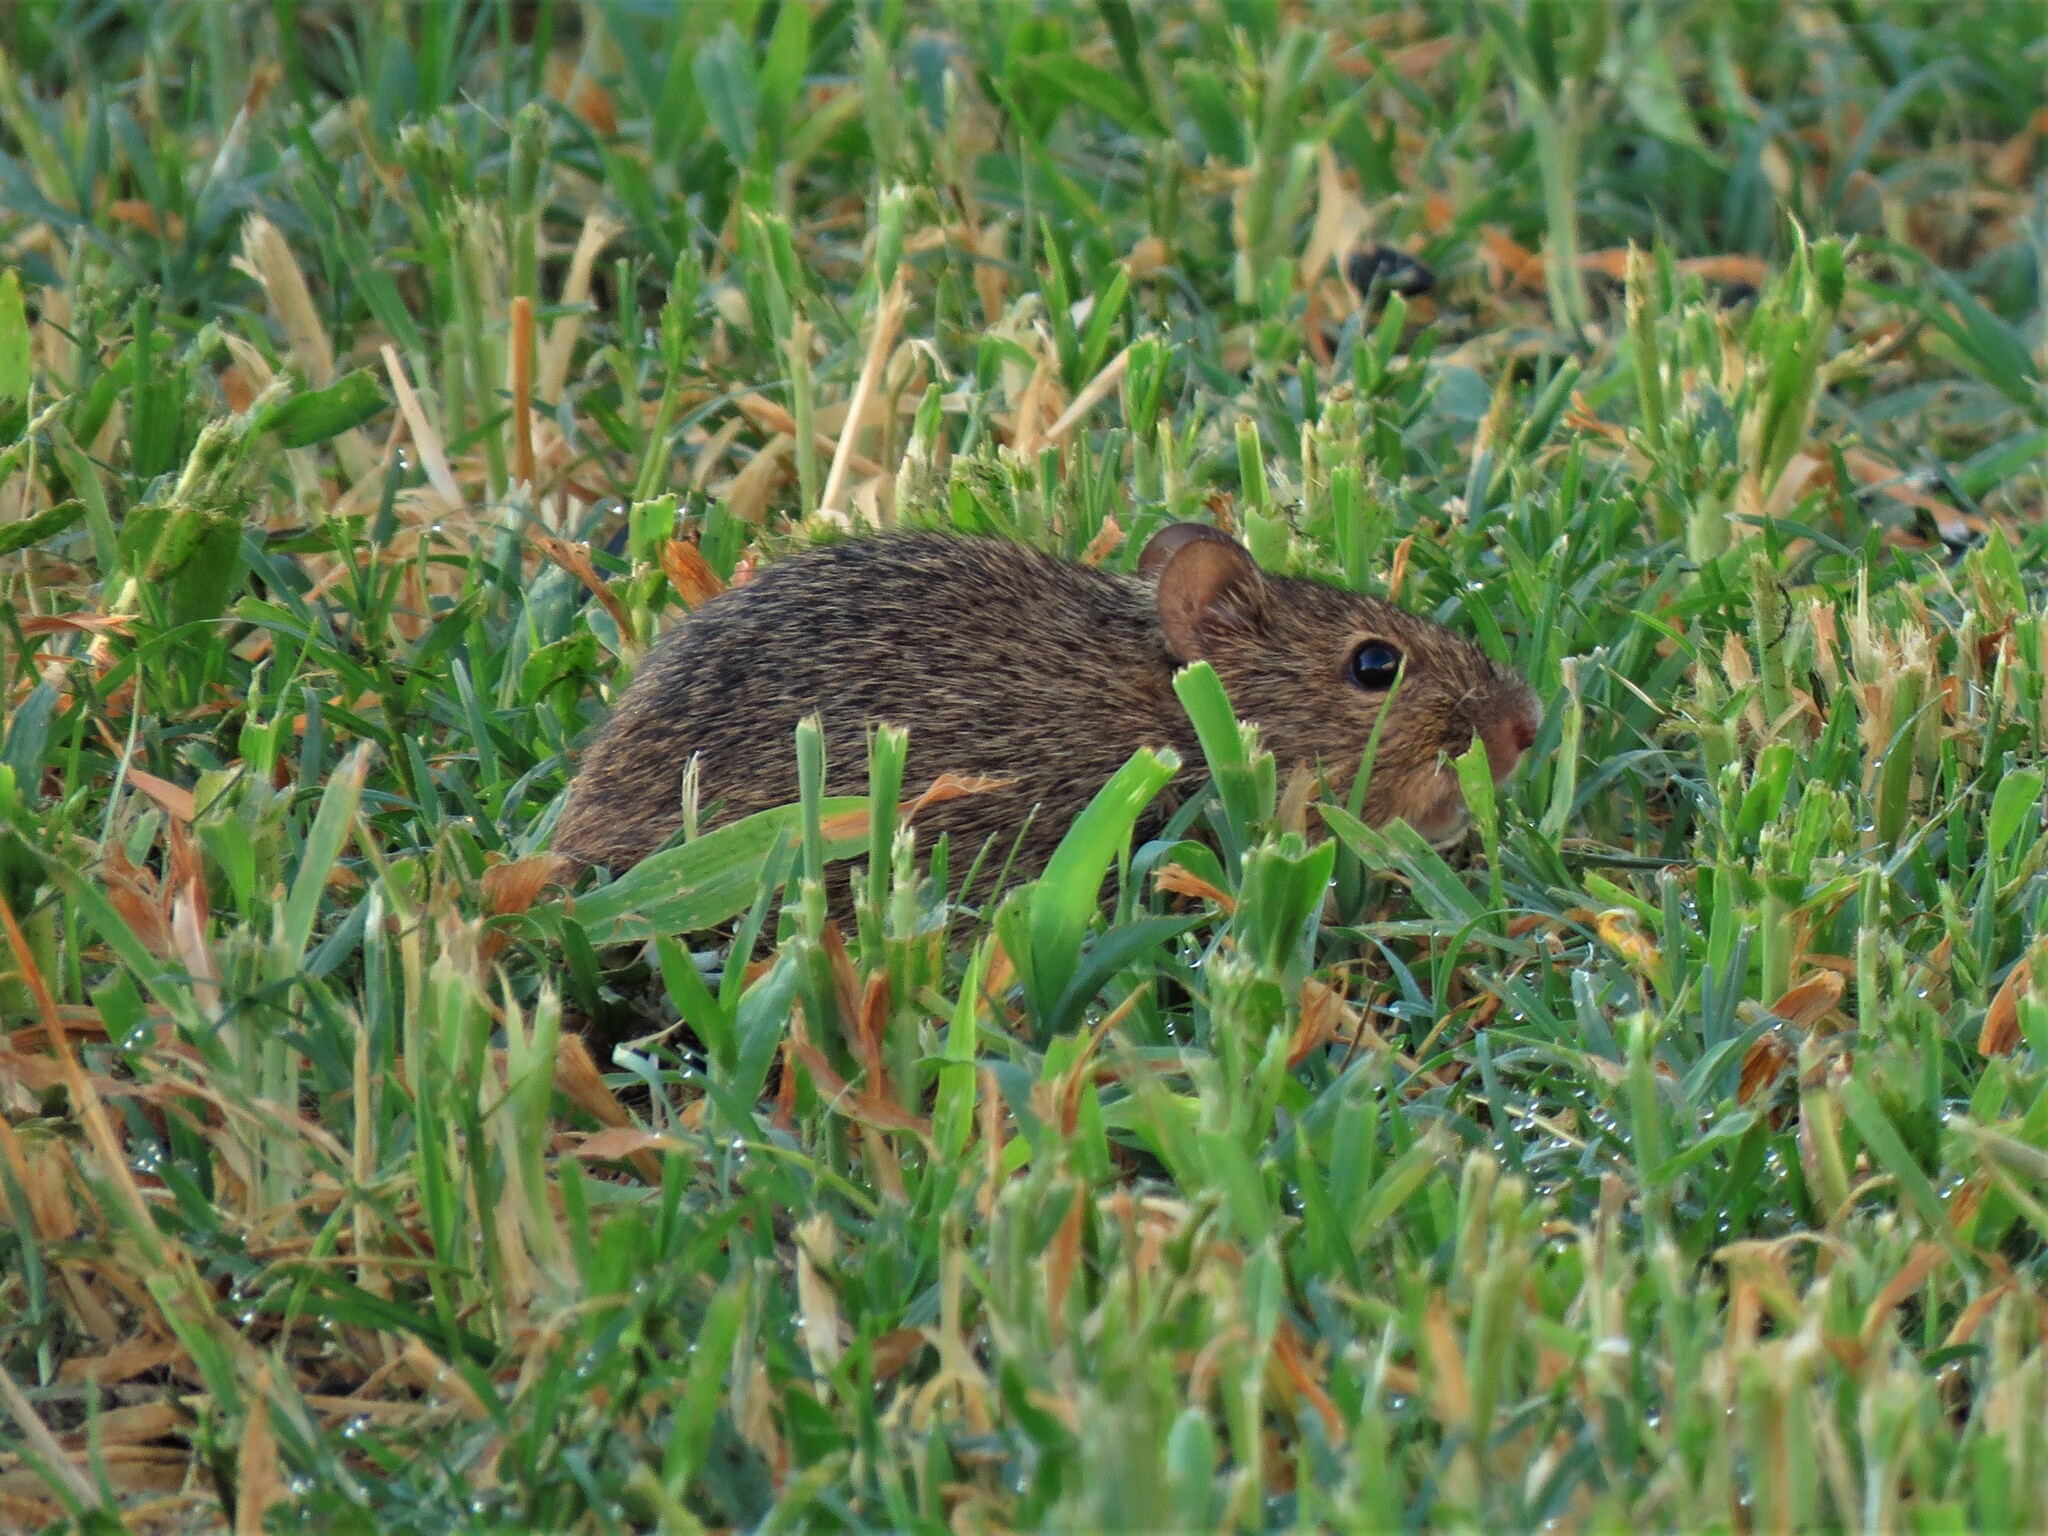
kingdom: Animalia
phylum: Chordata
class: Mammalia
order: Rodentia
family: Cricetidae
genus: Sigmodon
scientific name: Sigmodon hispidus
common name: Hispid cotton rat
